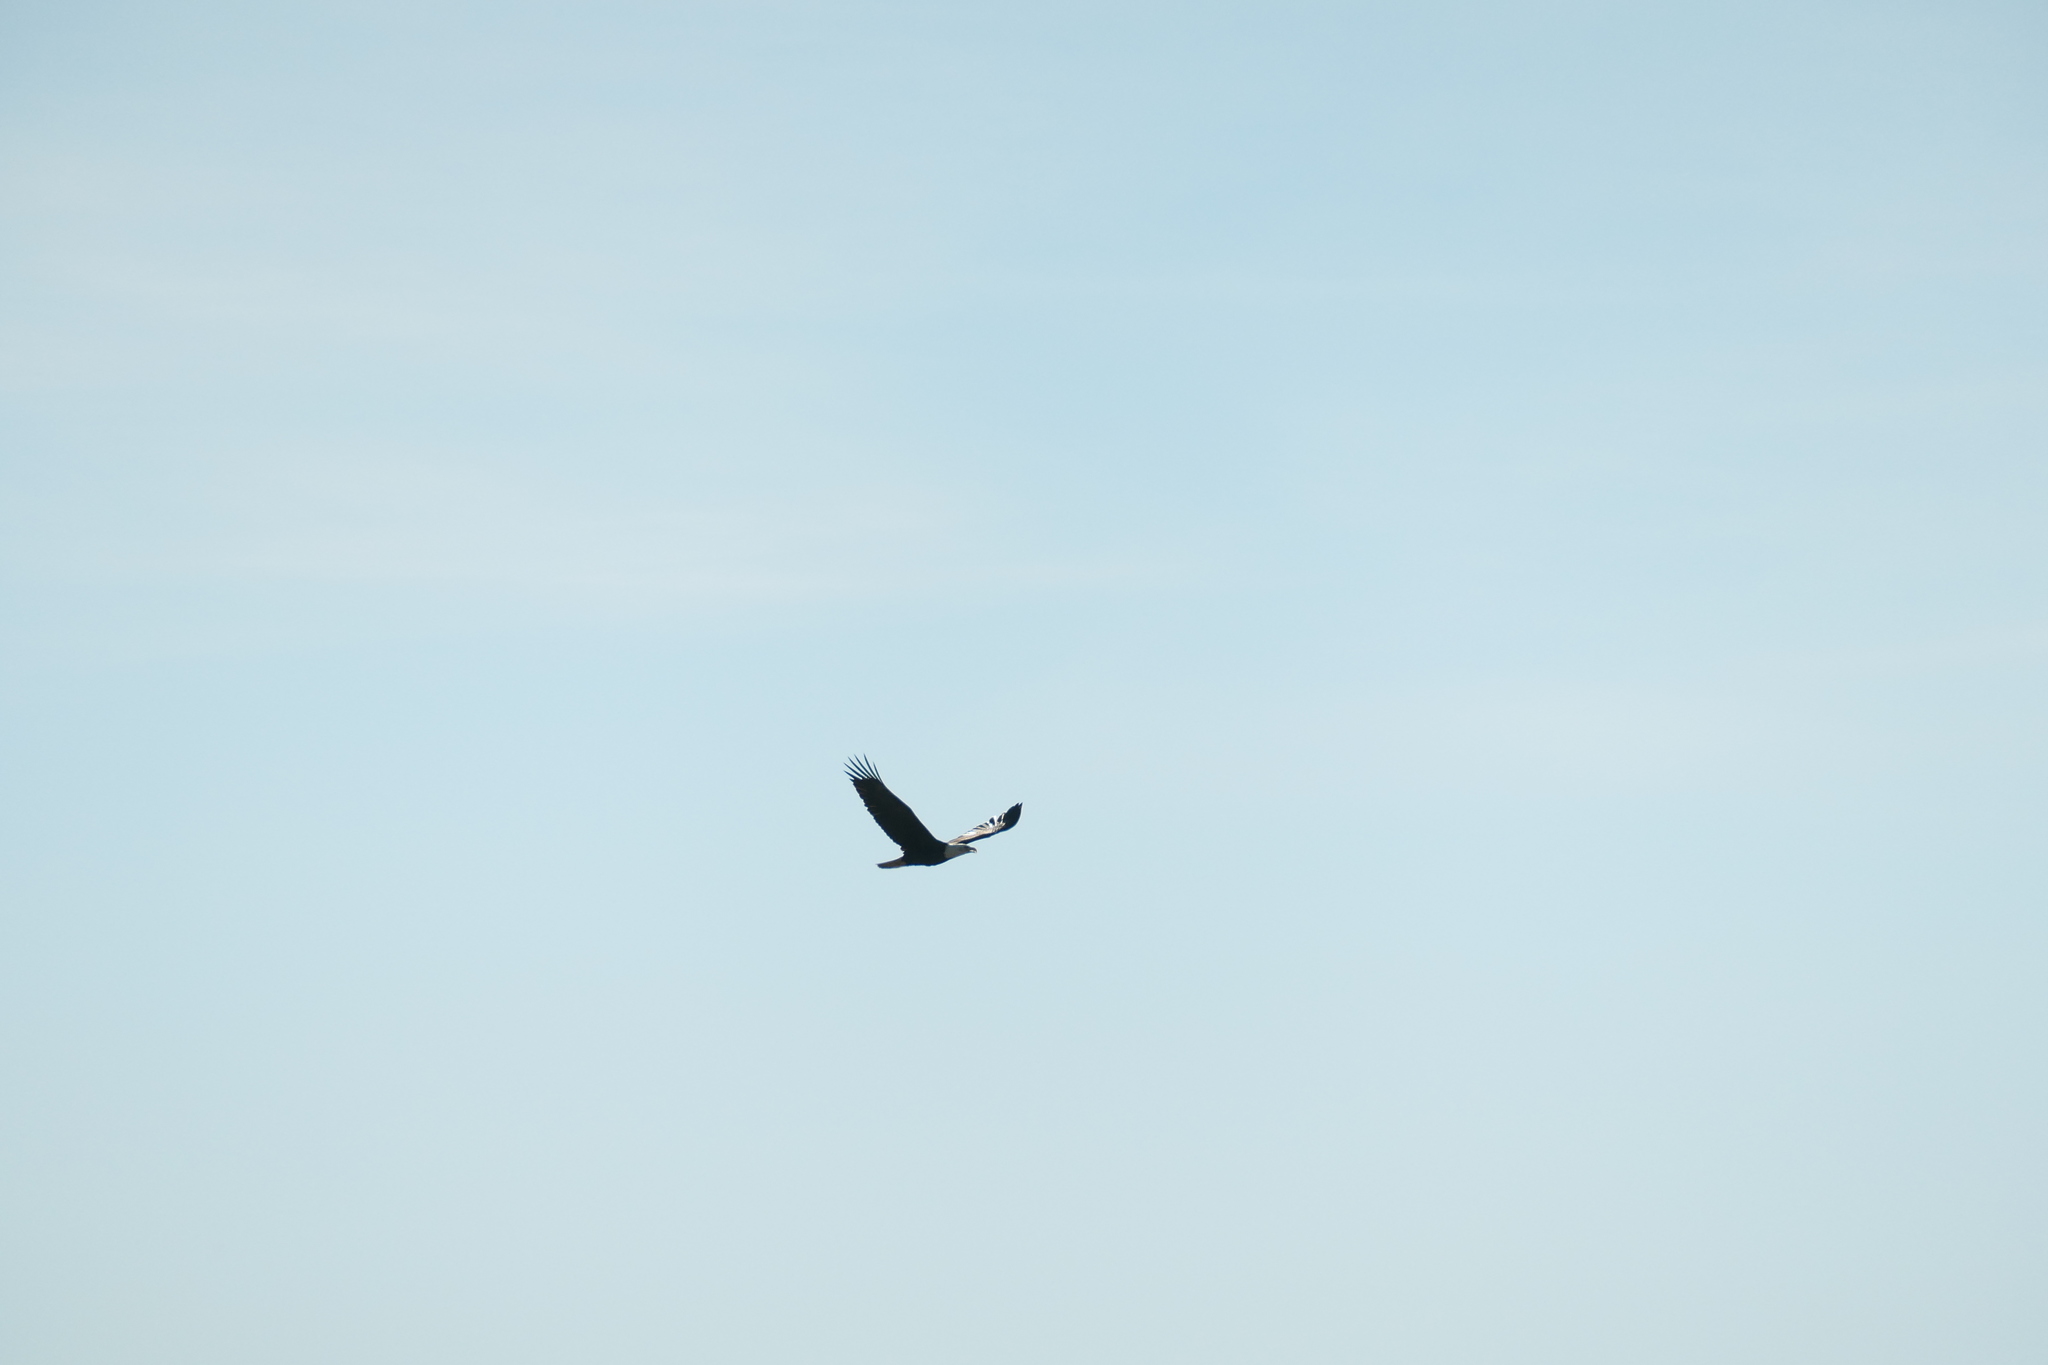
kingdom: Animalia
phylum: Chordata
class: Aves
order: Accipitriformes
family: Accipitridae
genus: Haliaeetus
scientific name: Haliaeetus leucocephalus
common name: Bald eagle
